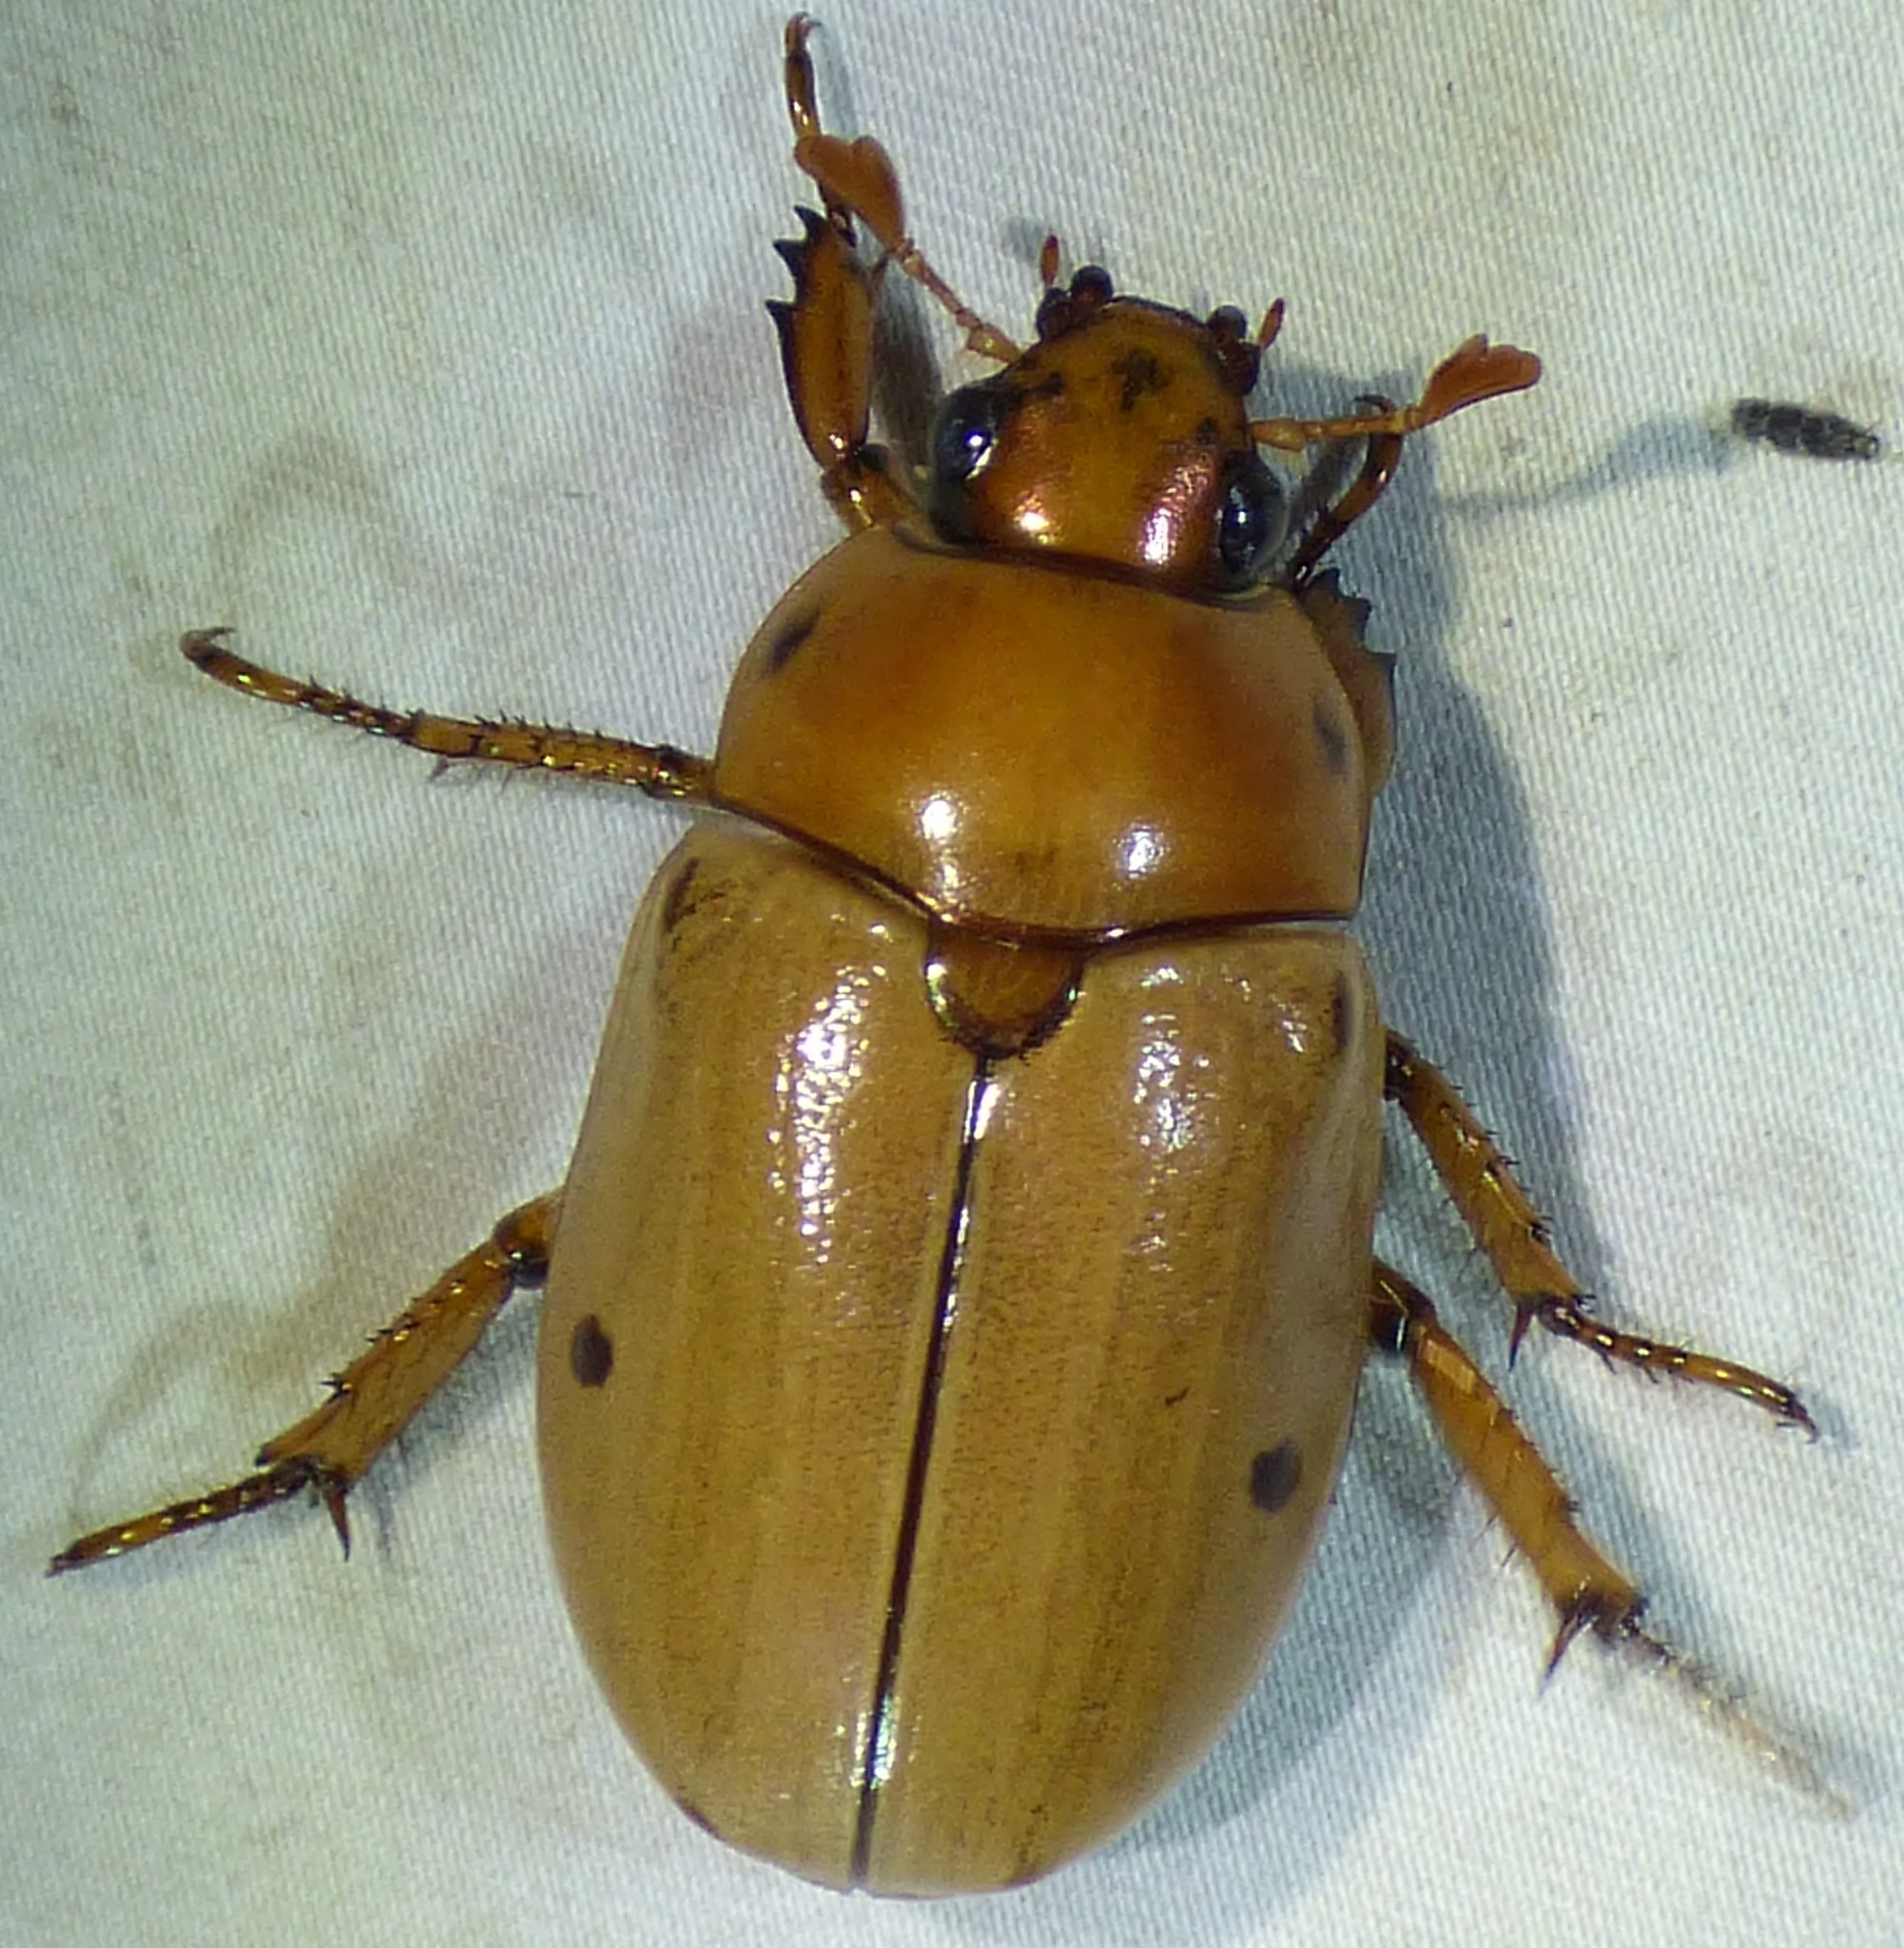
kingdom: Animalia
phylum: Arthropoda
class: Insecta
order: Coleoptera
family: Scarabaeidae
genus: Pelidnota
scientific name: Pelidnota punctata
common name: Grapevine beetle
